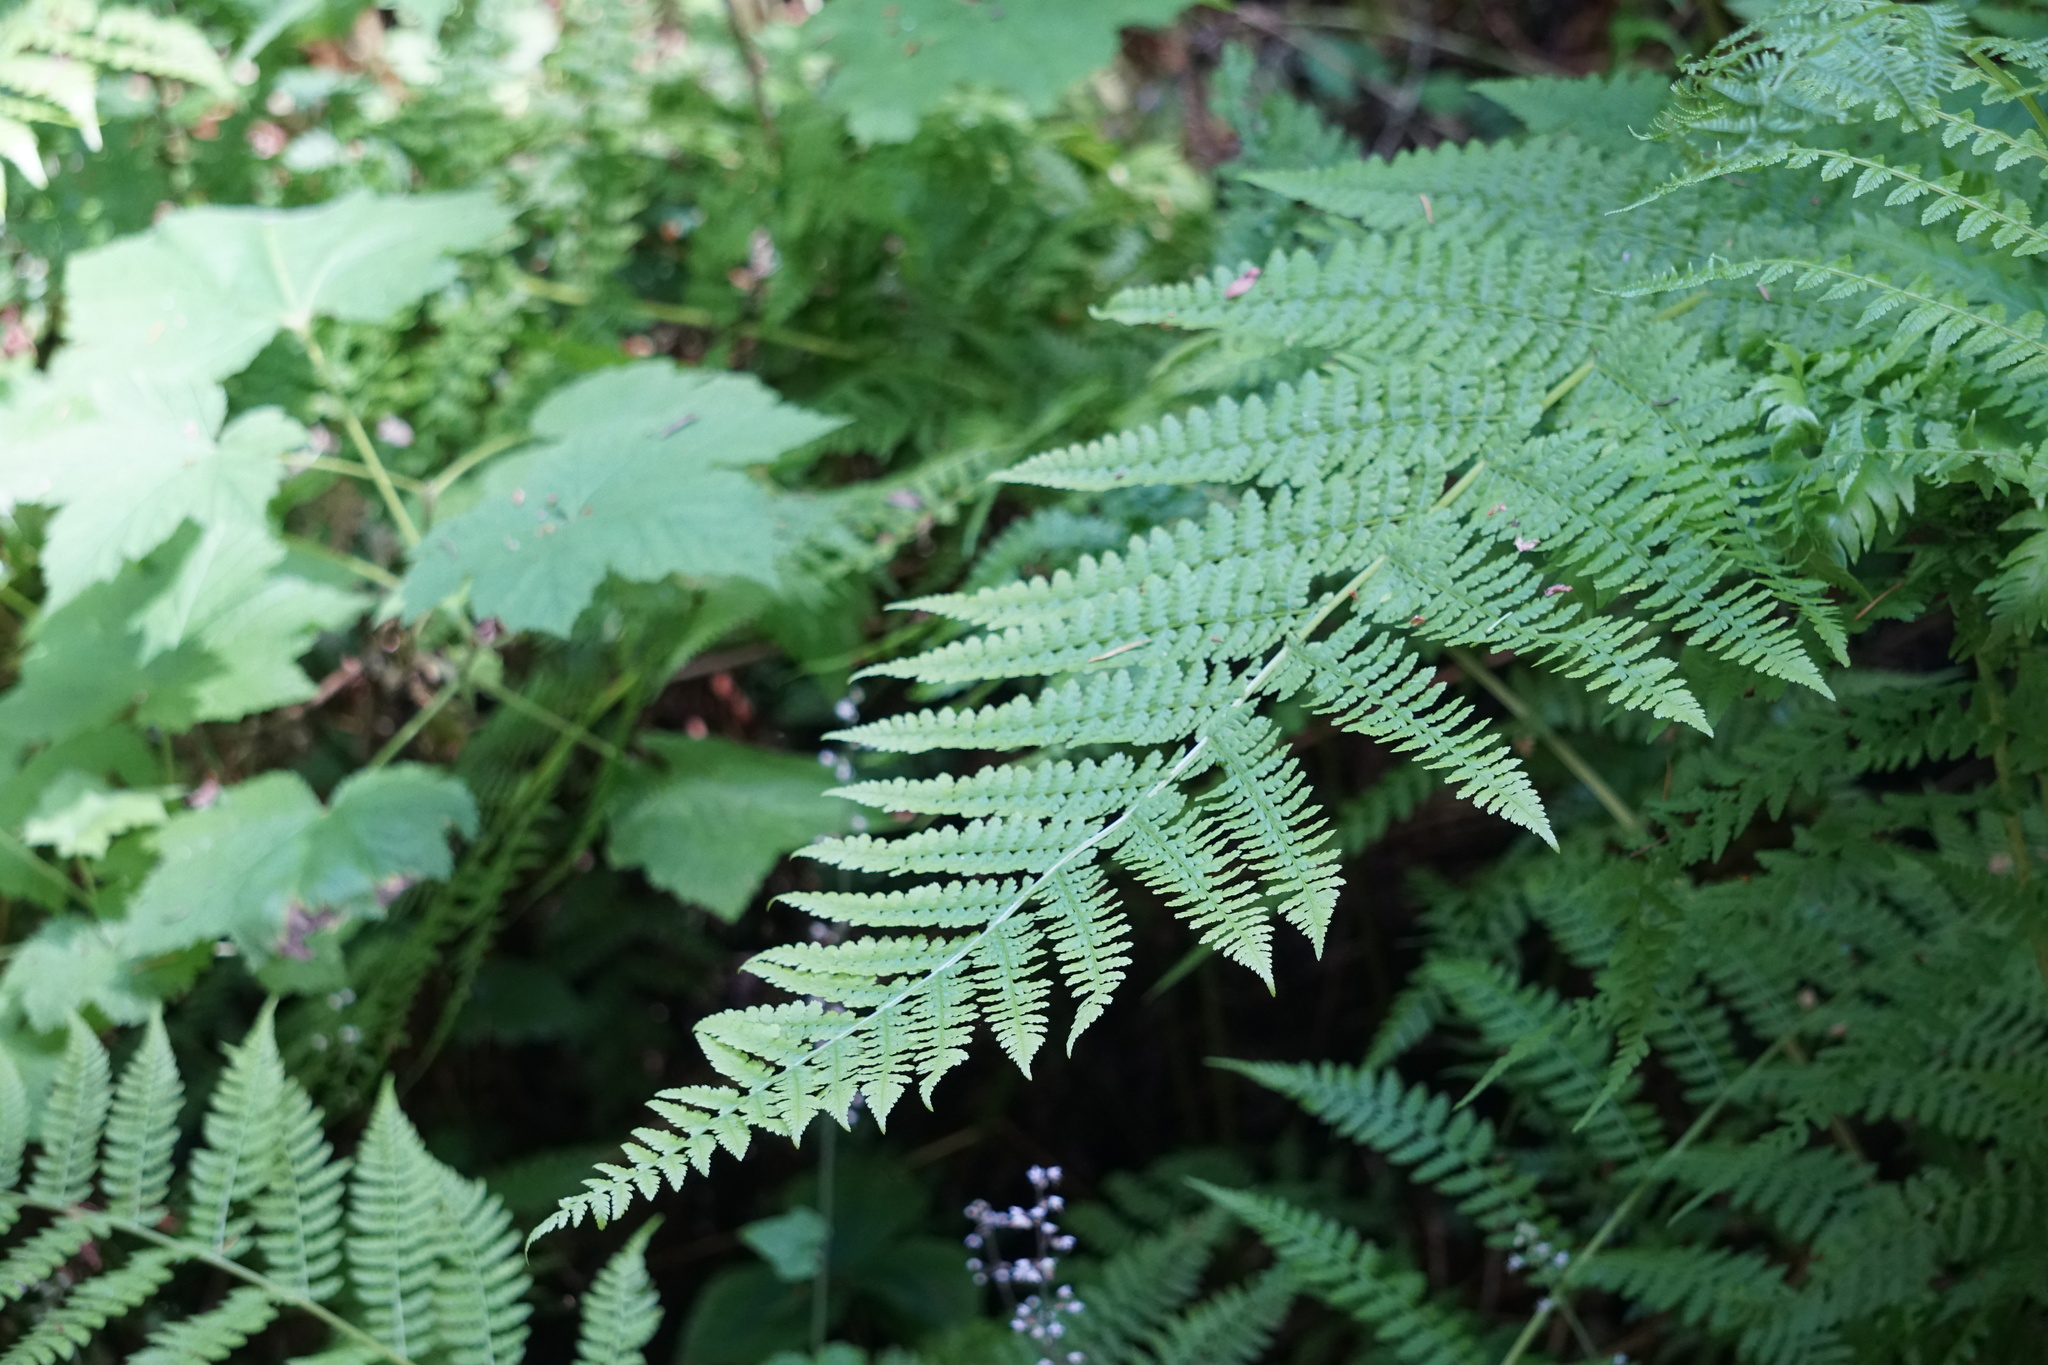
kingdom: Plantae
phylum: Tracheophyta
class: Polypodiopsida
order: Polypodiales
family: Athyriaceae
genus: Athyrium
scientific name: Athyrium filix-femina
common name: Lady fern
